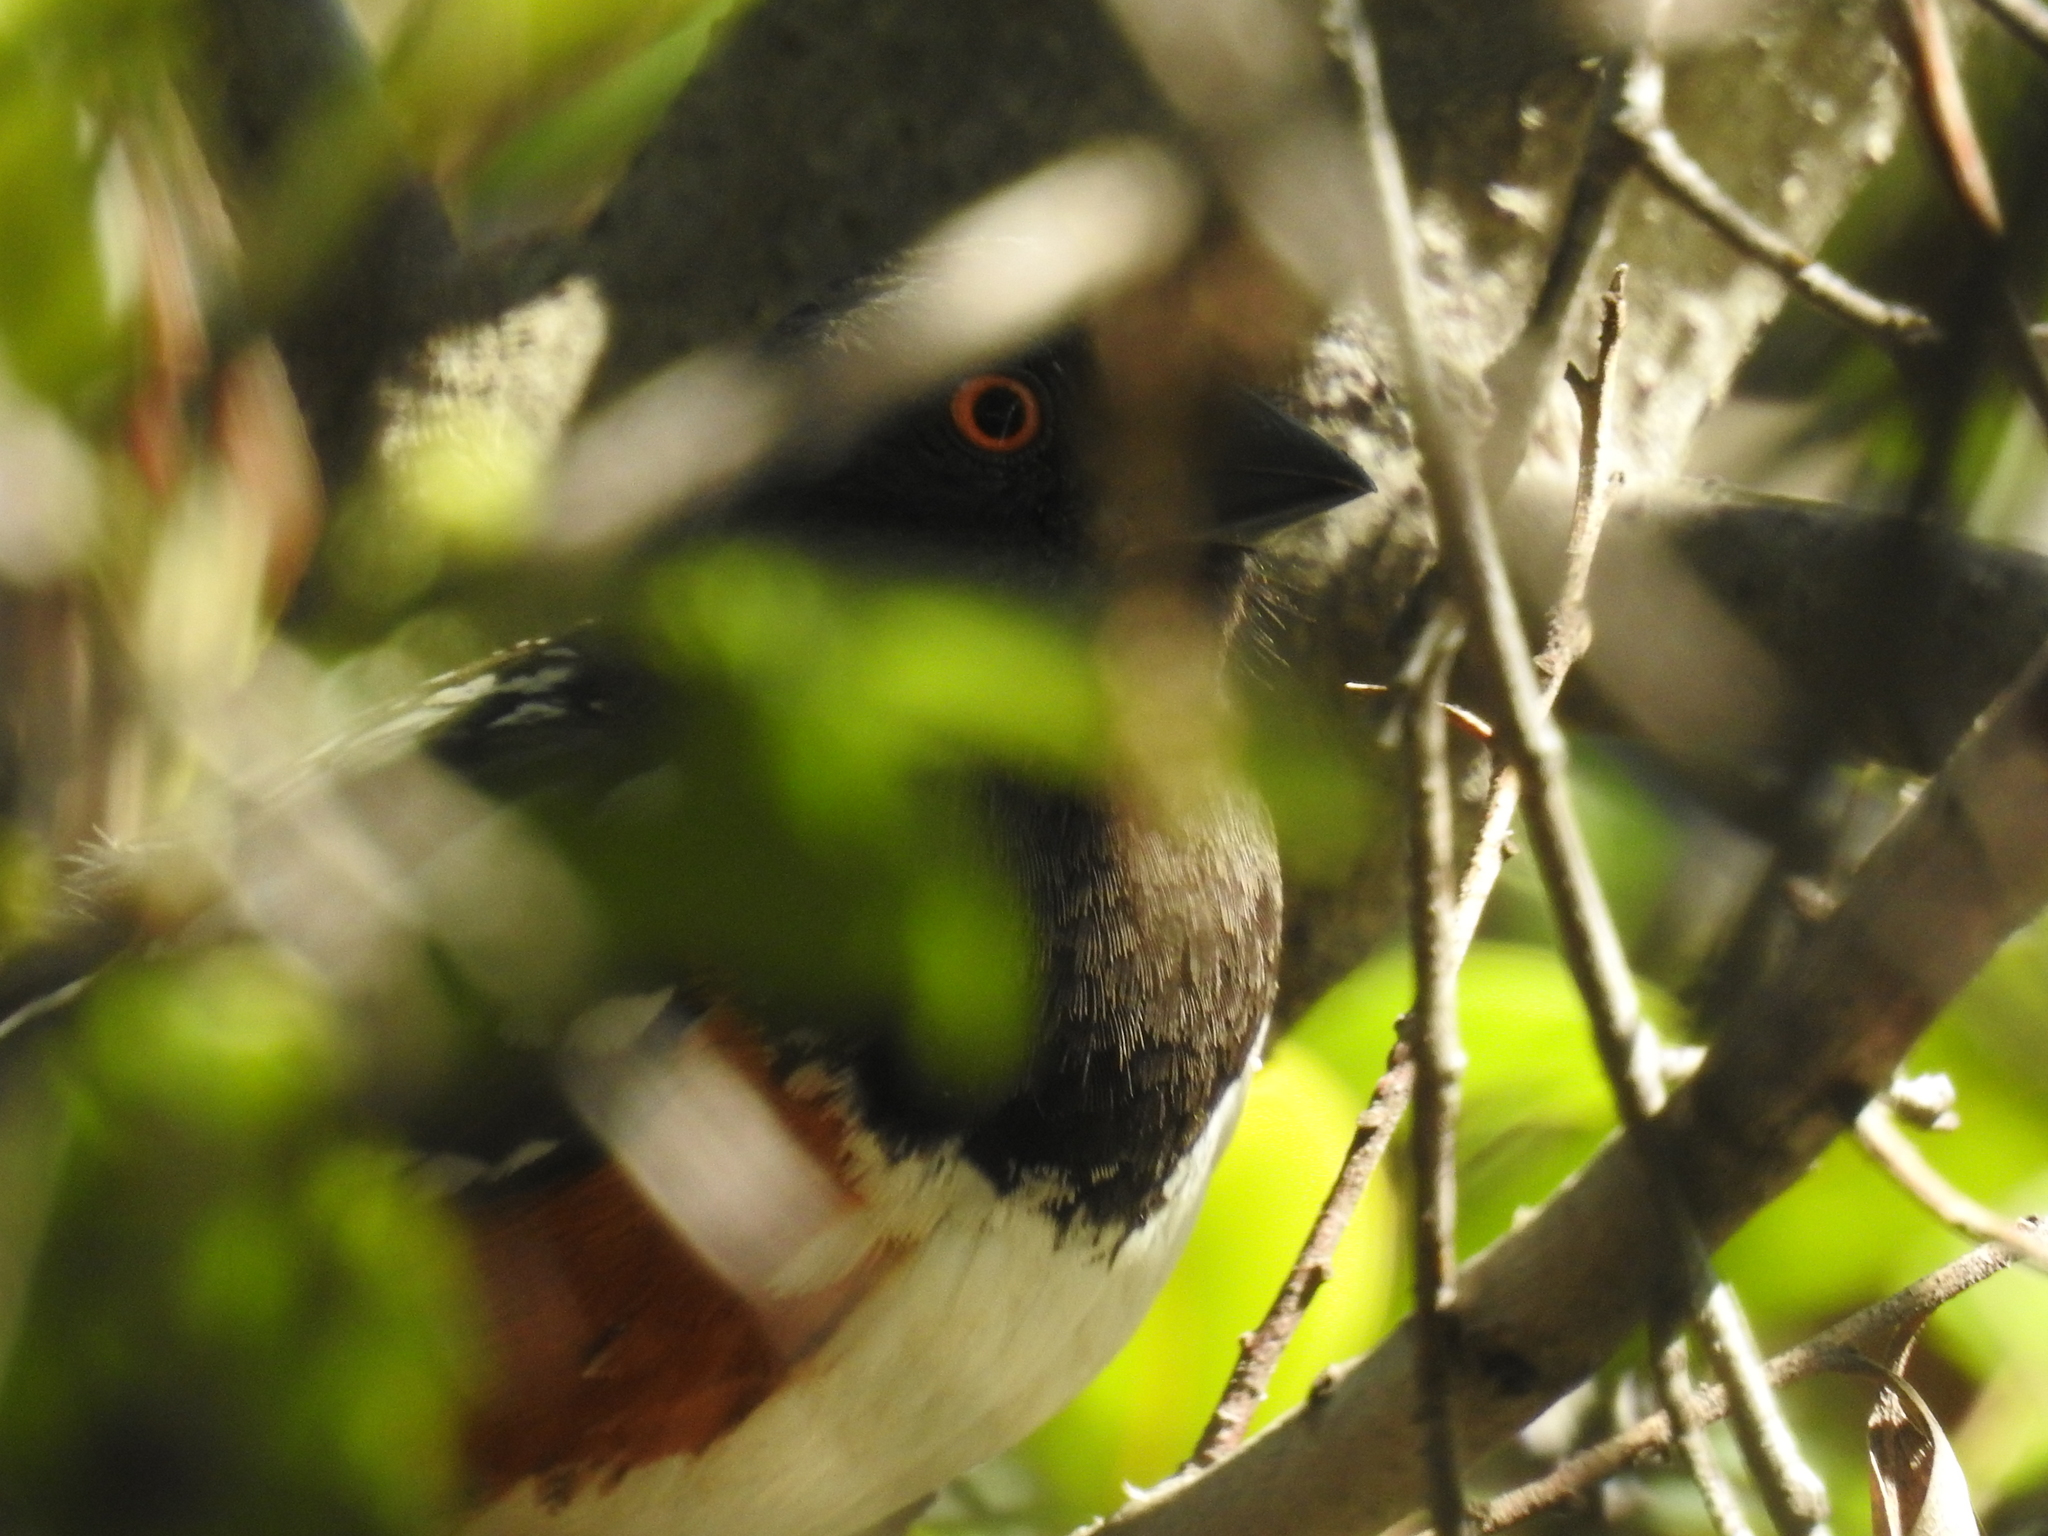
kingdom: Animalia
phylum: Chordata
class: Aves
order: Passeriformes
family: Passerellidae
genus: Pipilo
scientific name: Pipilo maculatus
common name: Spotted towhee
